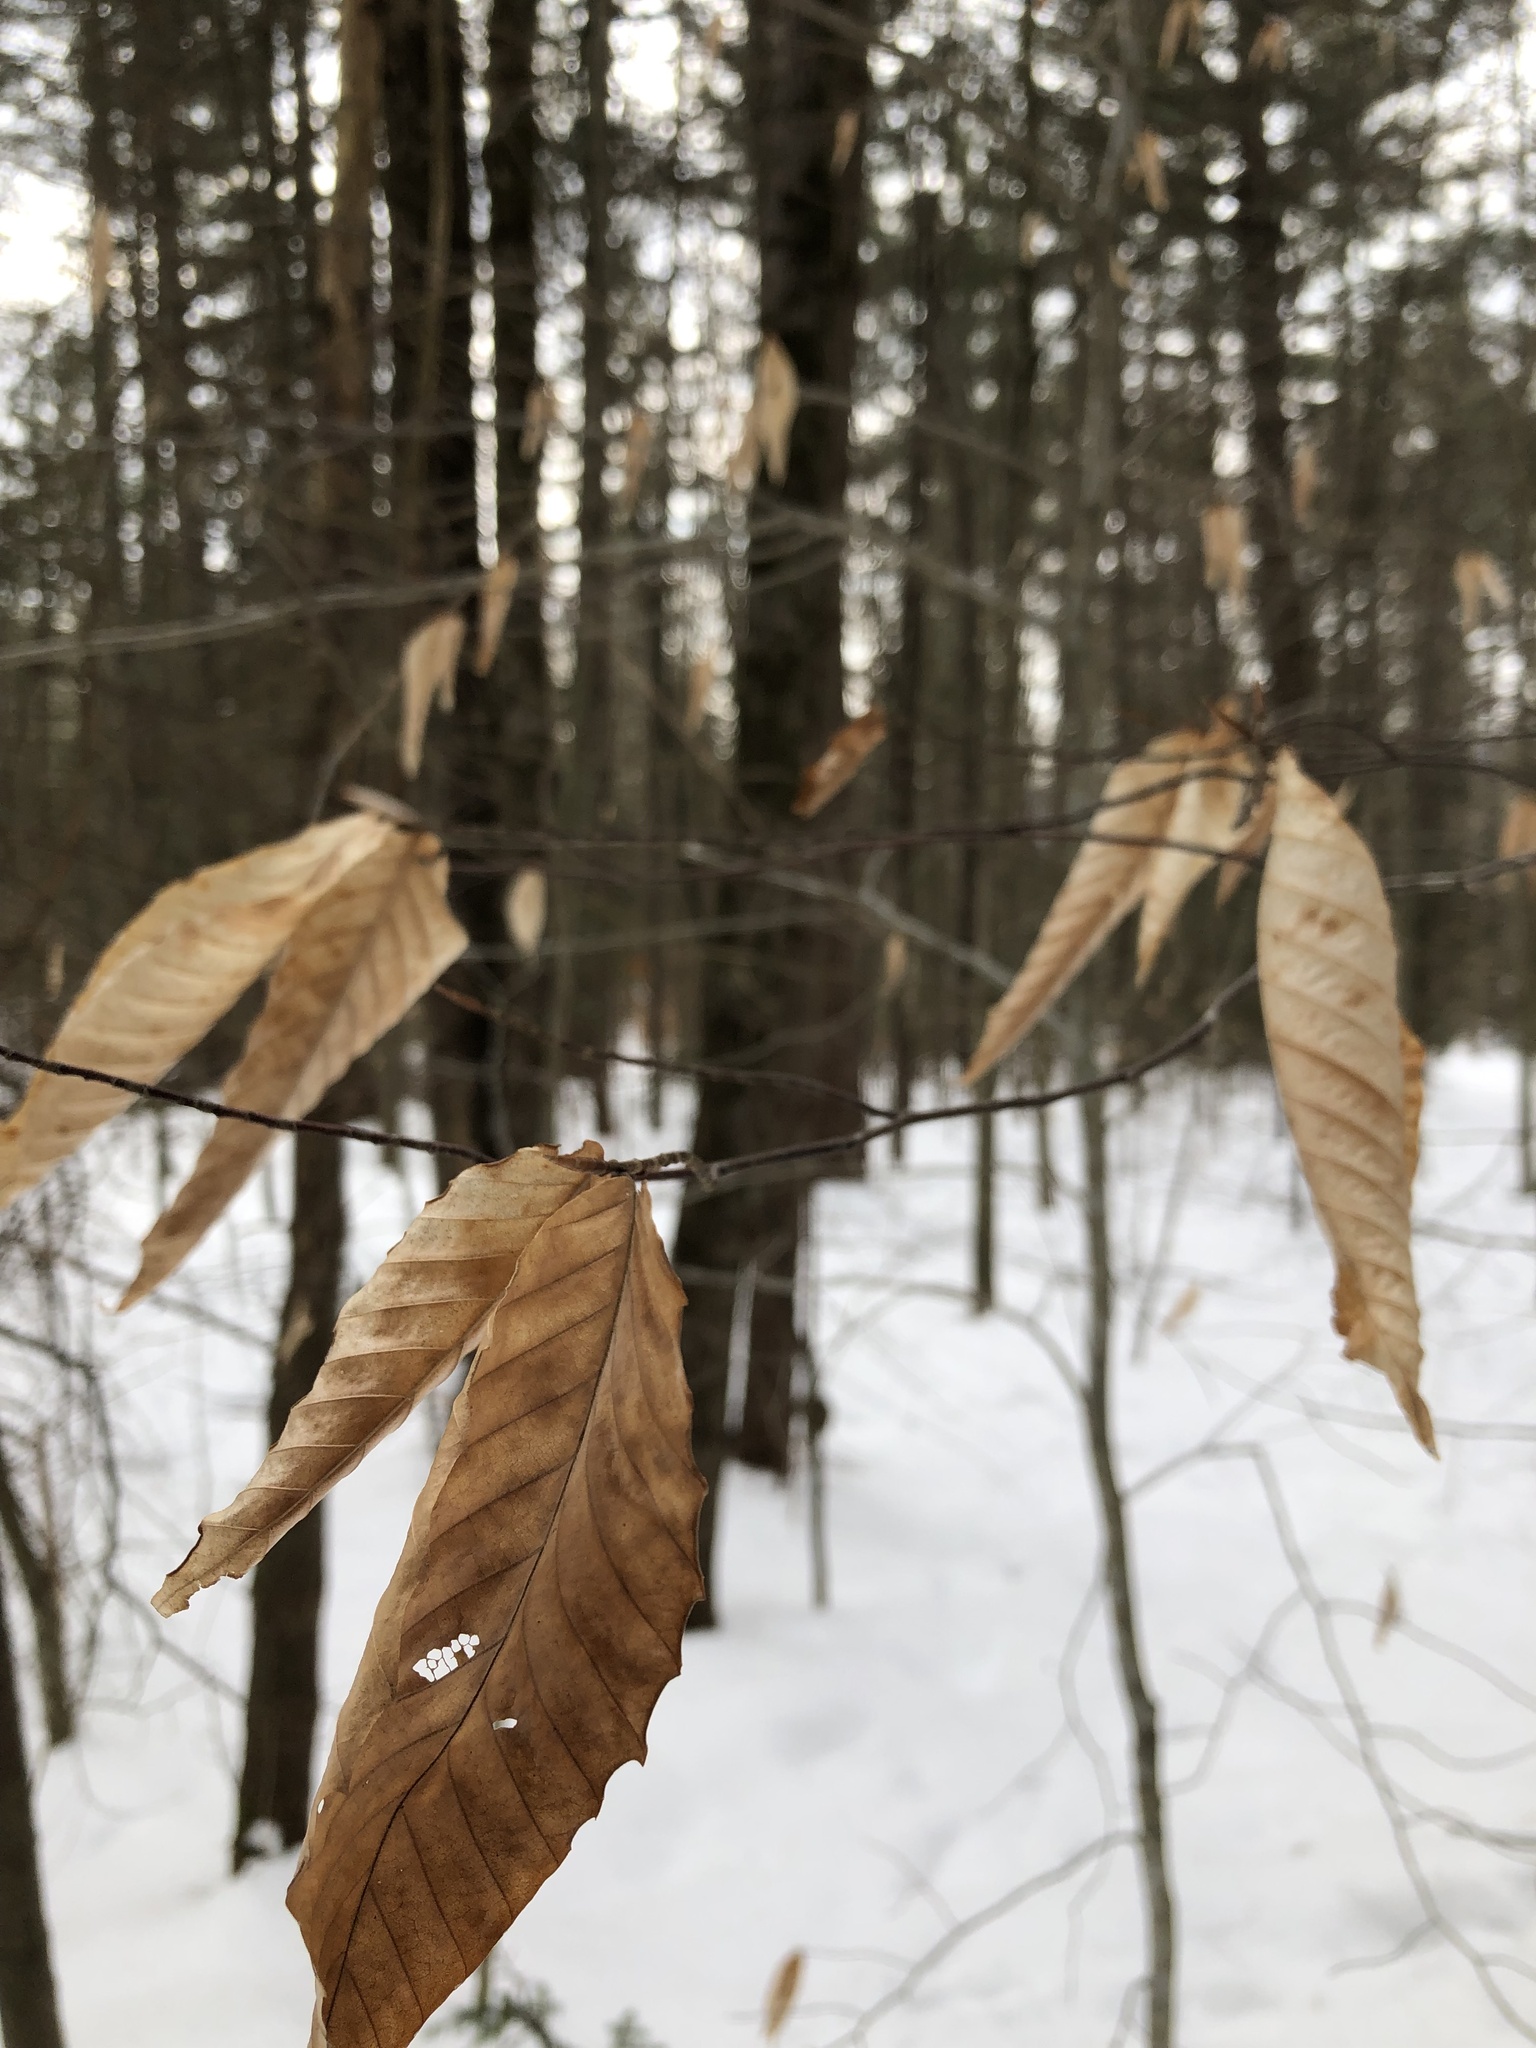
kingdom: Plantae
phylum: Tracheophyta
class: Magnoliopsida
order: Fagales
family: Fagaceae
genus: Fagus
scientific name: Fagus grandifolia
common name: American beech
